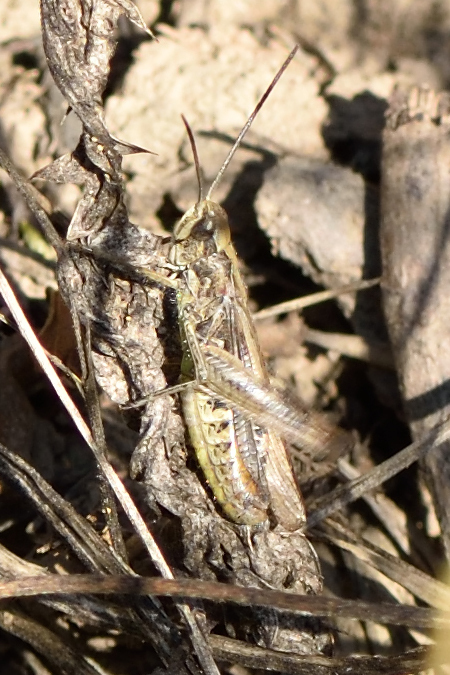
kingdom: Animalia
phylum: Arthropoda
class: Insecta
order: Orthoptera
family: Acrididae
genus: Chorthippus
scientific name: Chorthippus brunneus
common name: Field grasshopper
